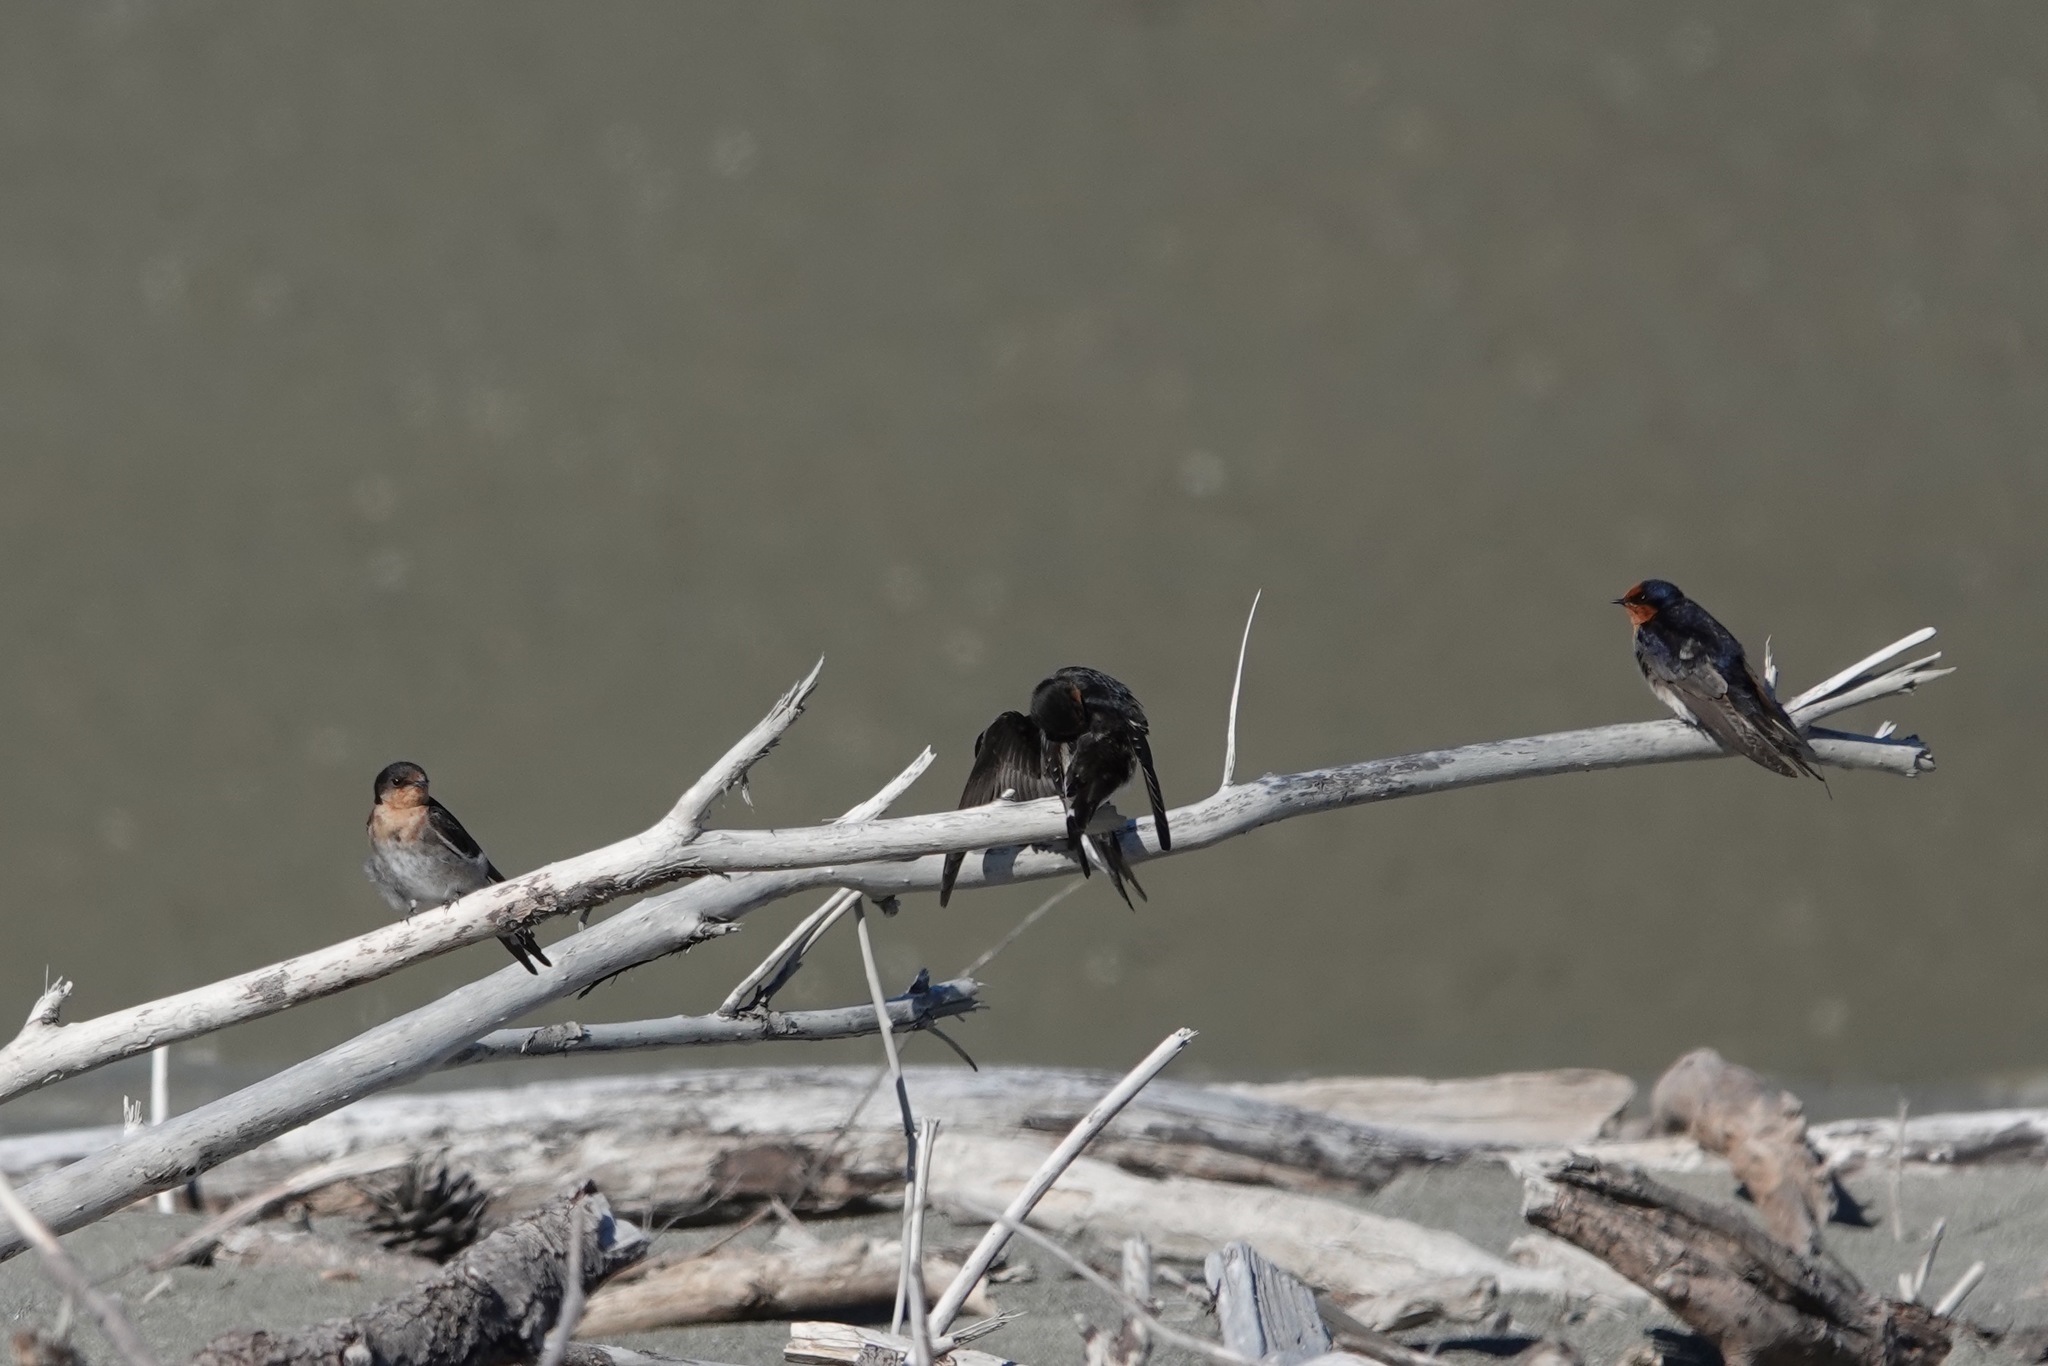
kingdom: Animalia
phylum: Chordata
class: Aves
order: Passeriformes
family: Hirundinidae
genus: Hirundo
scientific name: Hirundo neoxena
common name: Welcome swallow
